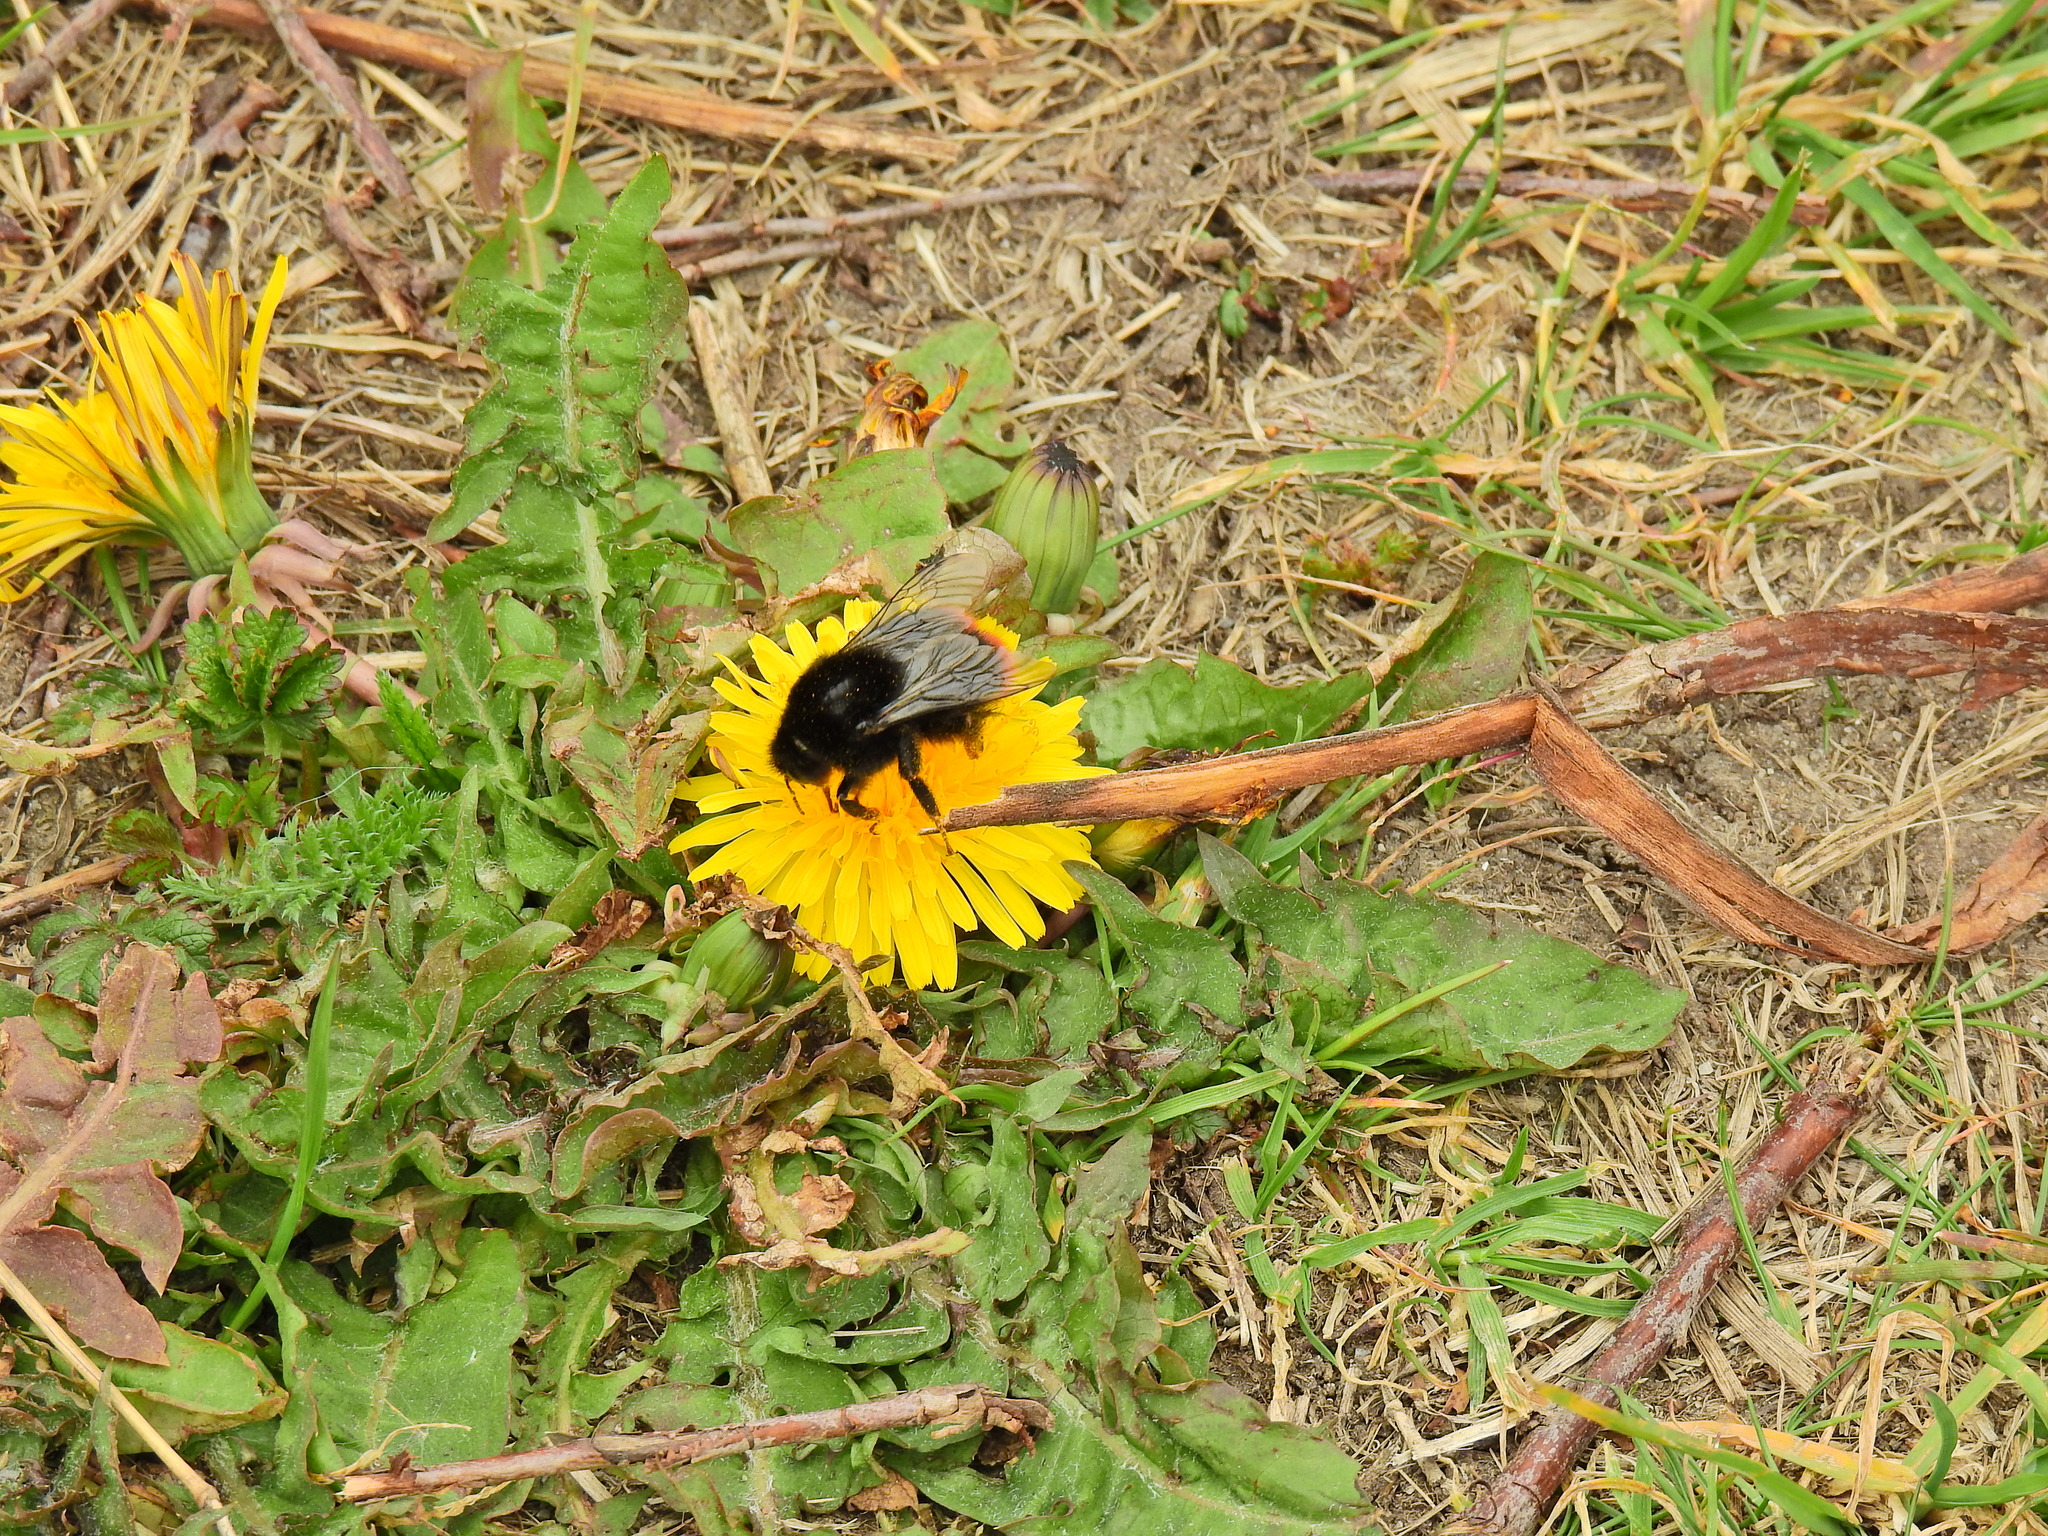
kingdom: Animalia
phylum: Arthropoda
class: Insecta
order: Hymenoptera
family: Apidae
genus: Bombus
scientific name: Bombus lapidarius
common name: Large red-tailed humble-bee
